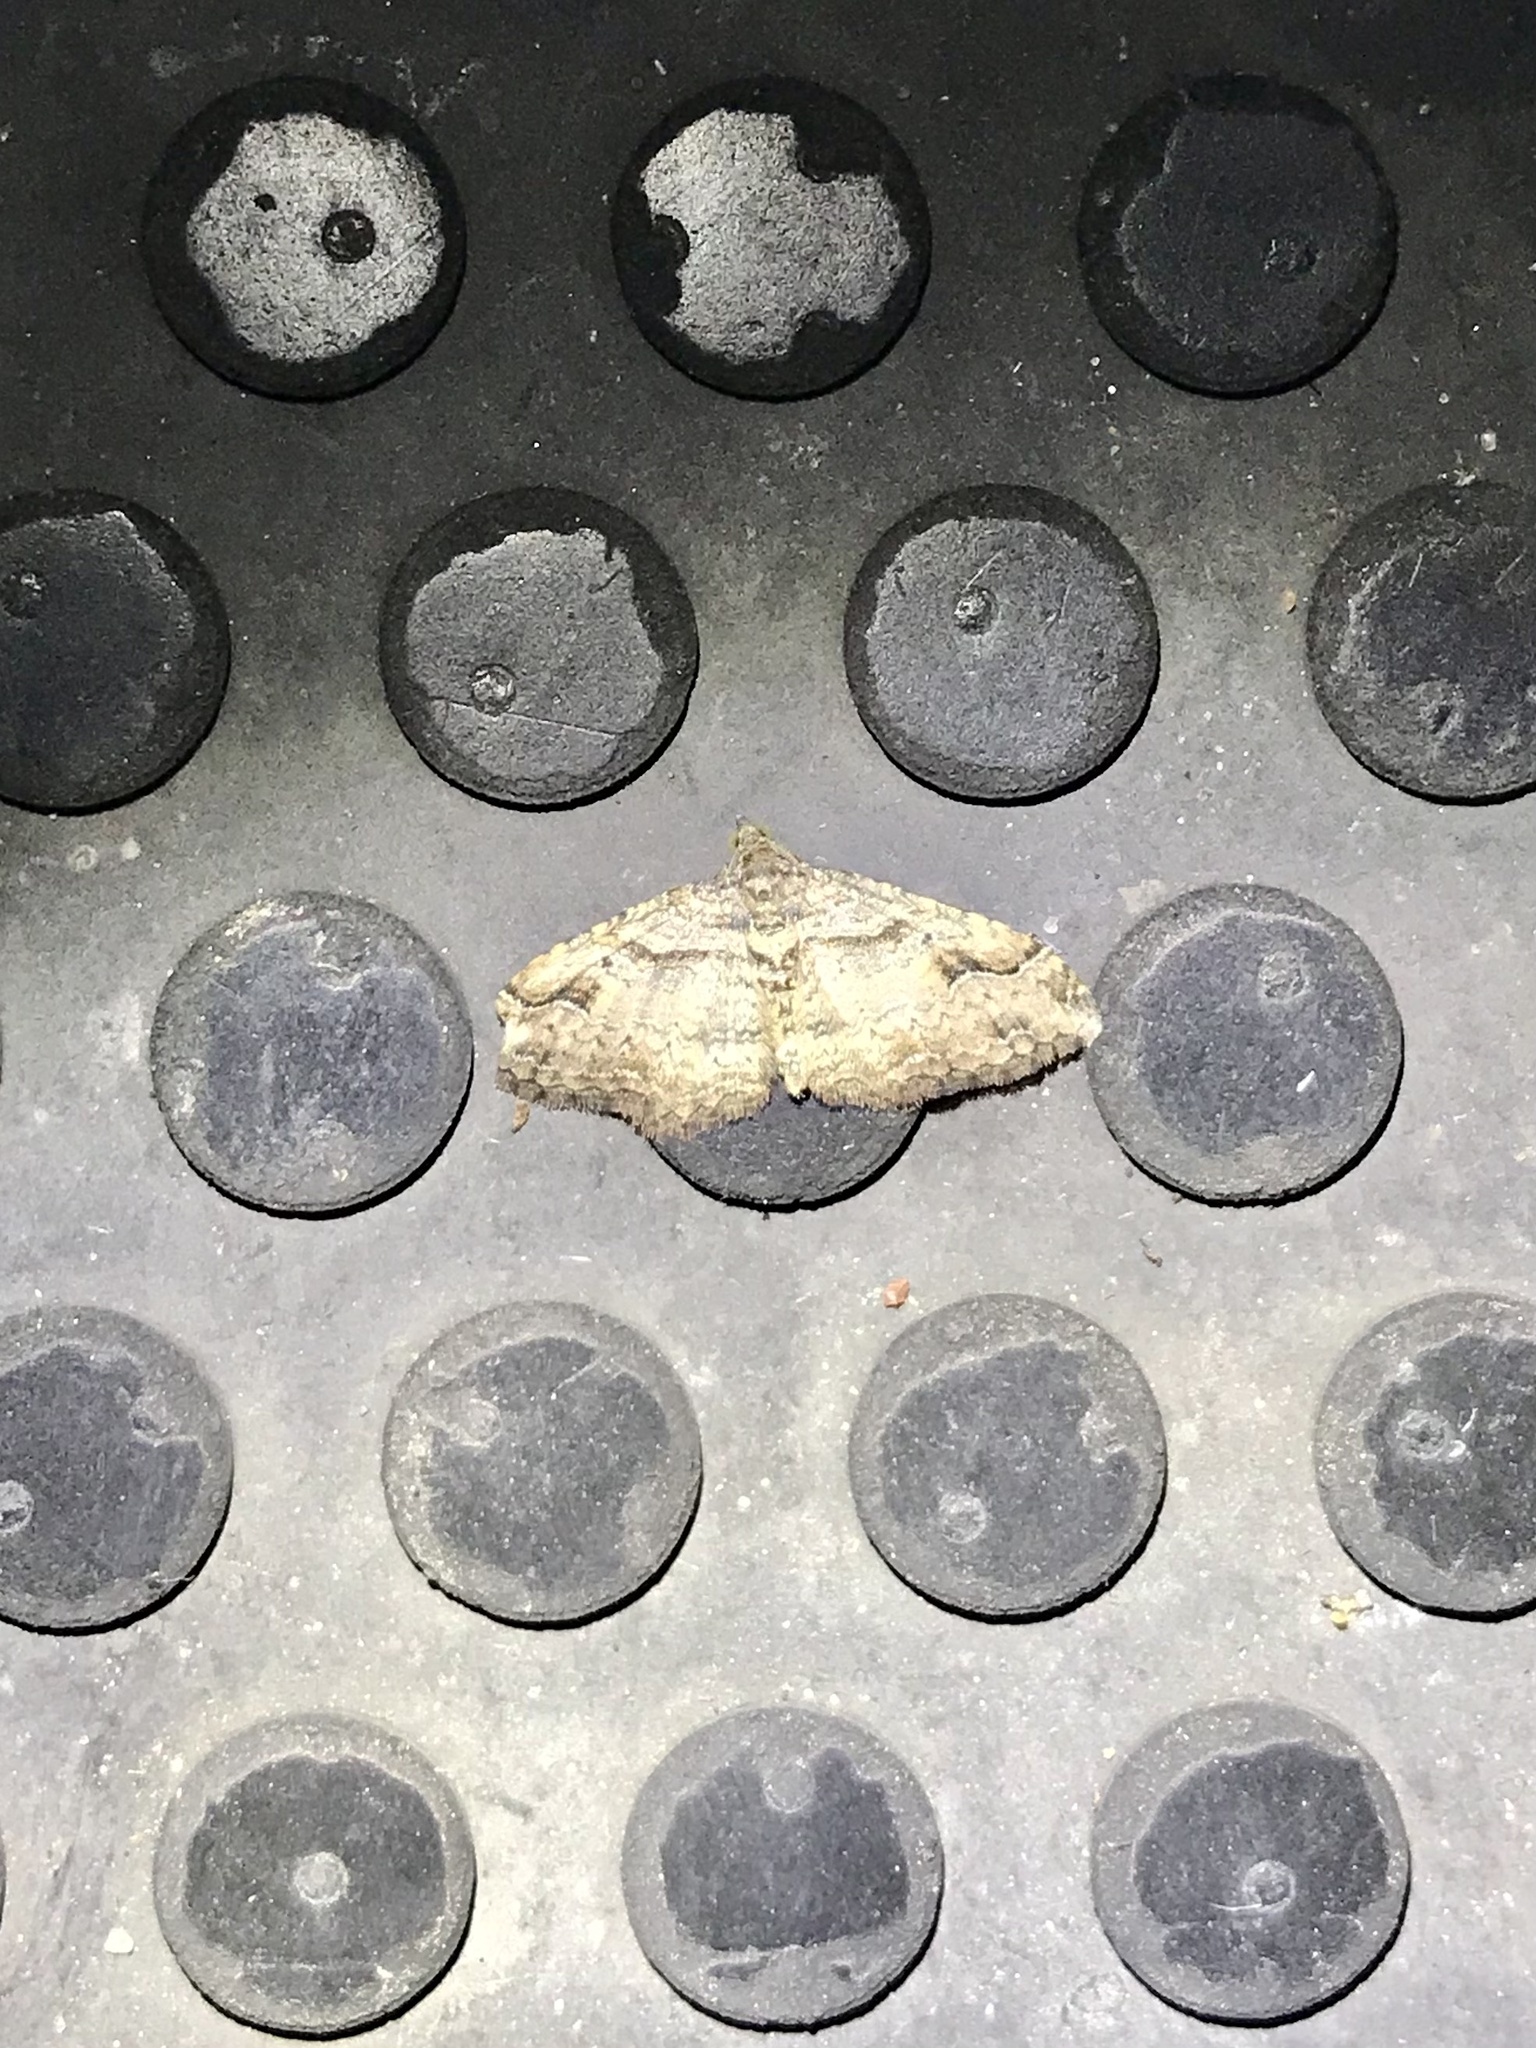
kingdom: Animalia
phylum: Arthropoda
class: Insecta
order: Lepidoptera
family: Geometridae
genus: Costaconvexa
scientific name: Costaconvexa centrostrigaria
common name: Bent-line carpet
